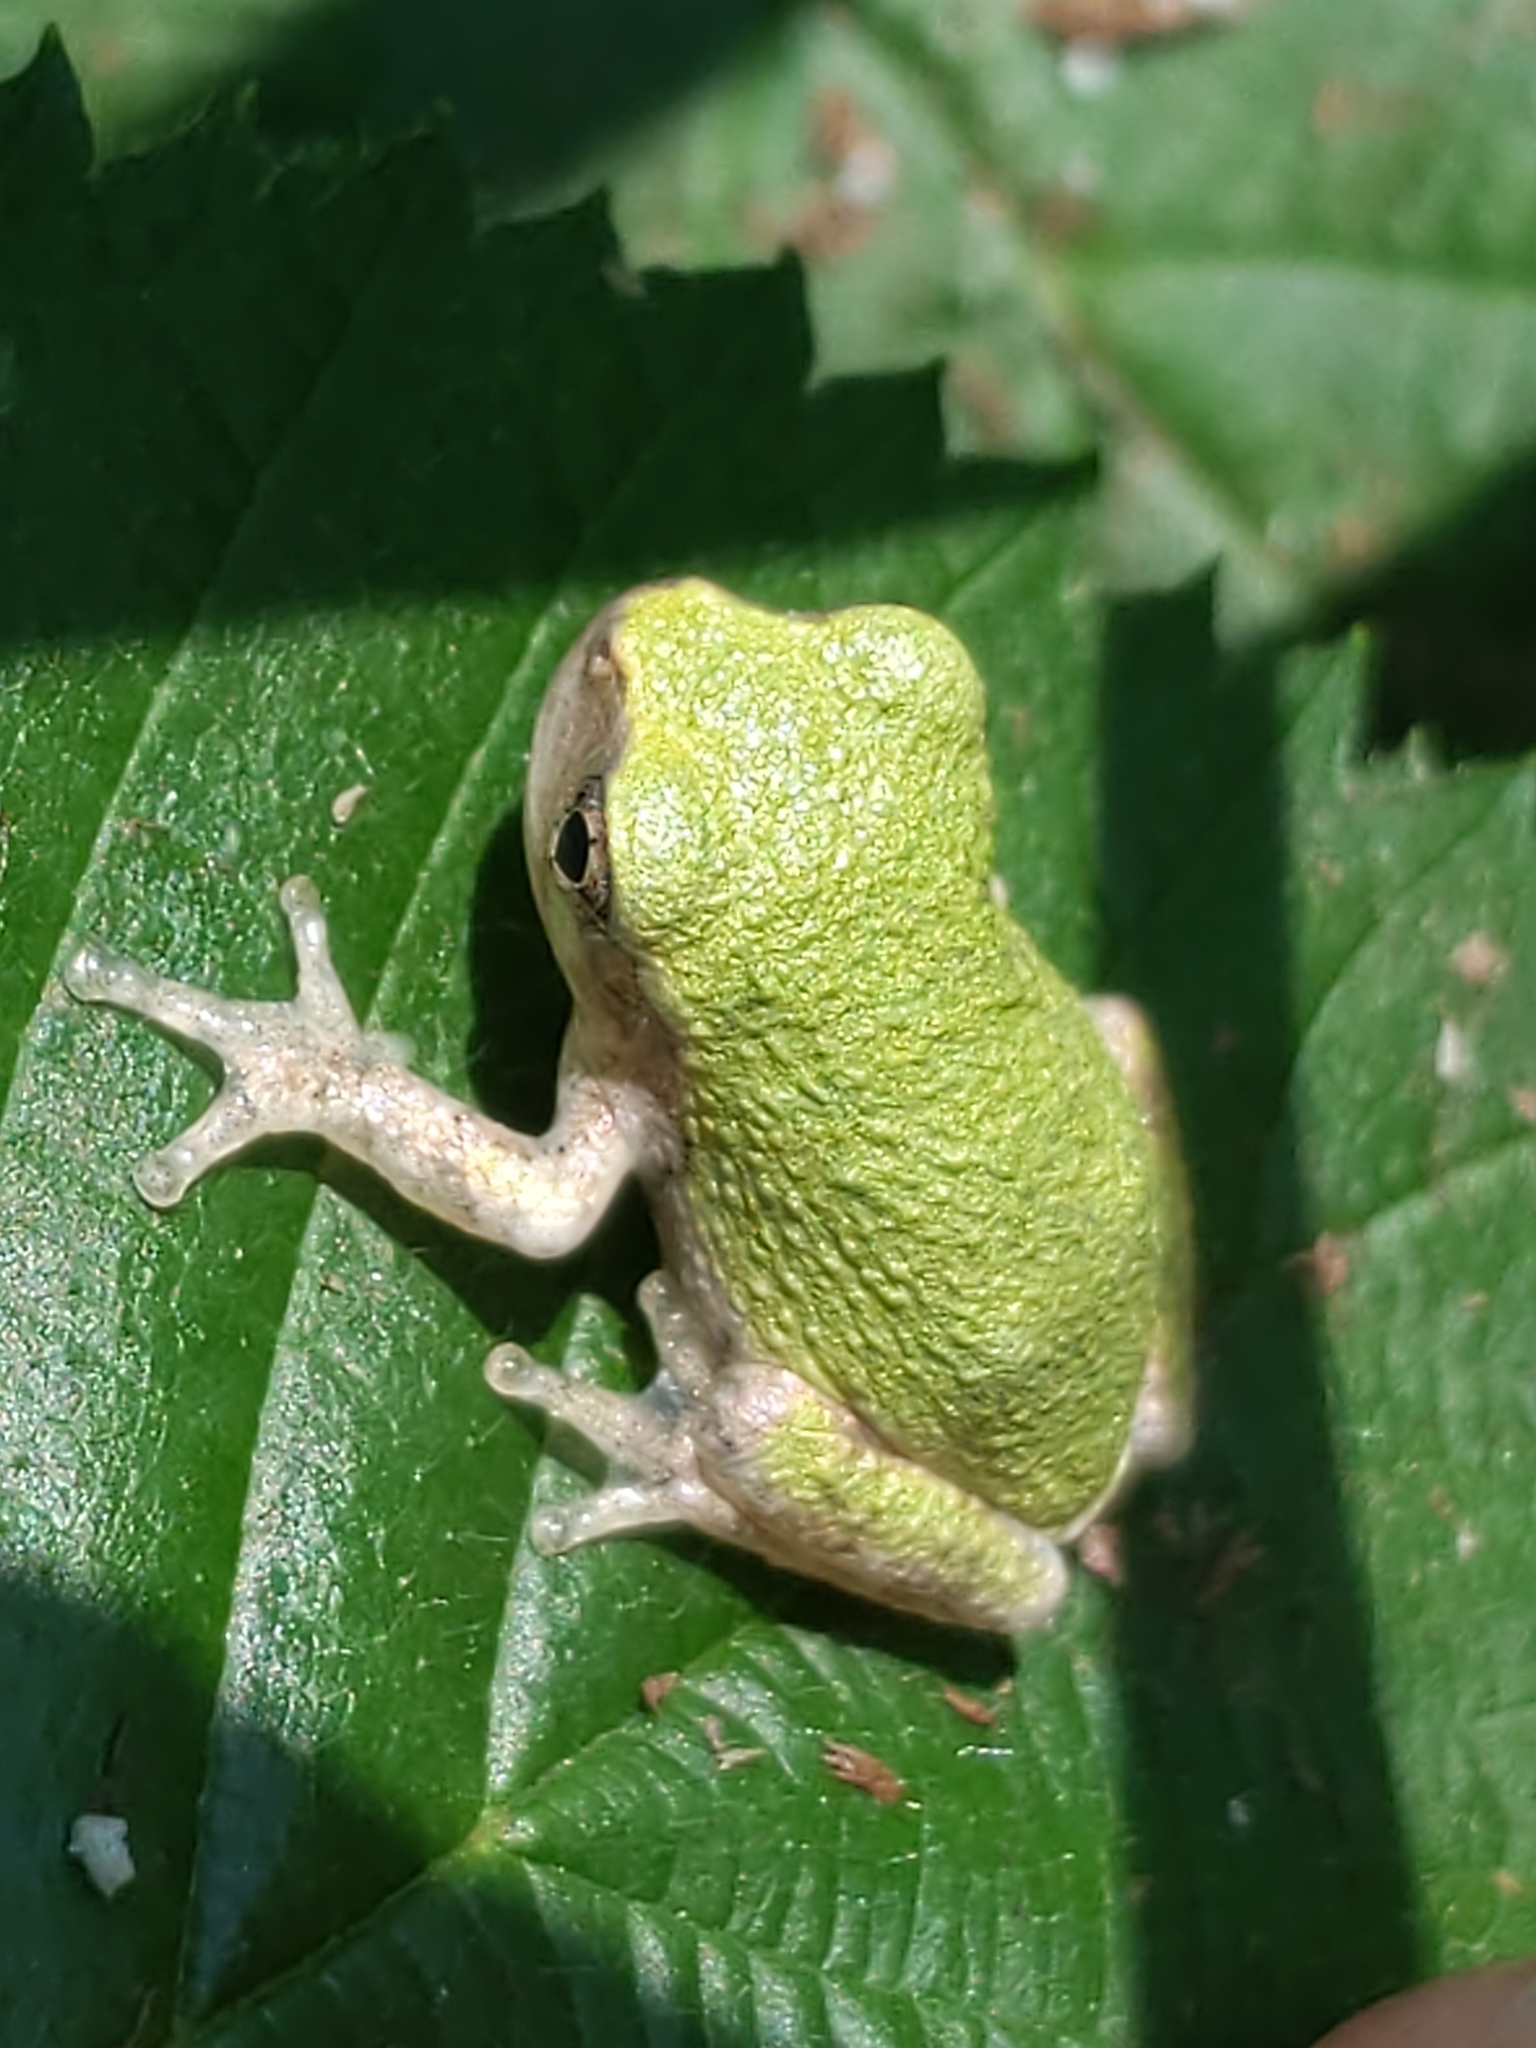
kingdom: Animalia
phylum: Chordata
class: Amphibia
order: Anura
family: Hylidae
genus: Dryophytes
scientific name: Dryophytes versicolor
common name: Gray treefrog
